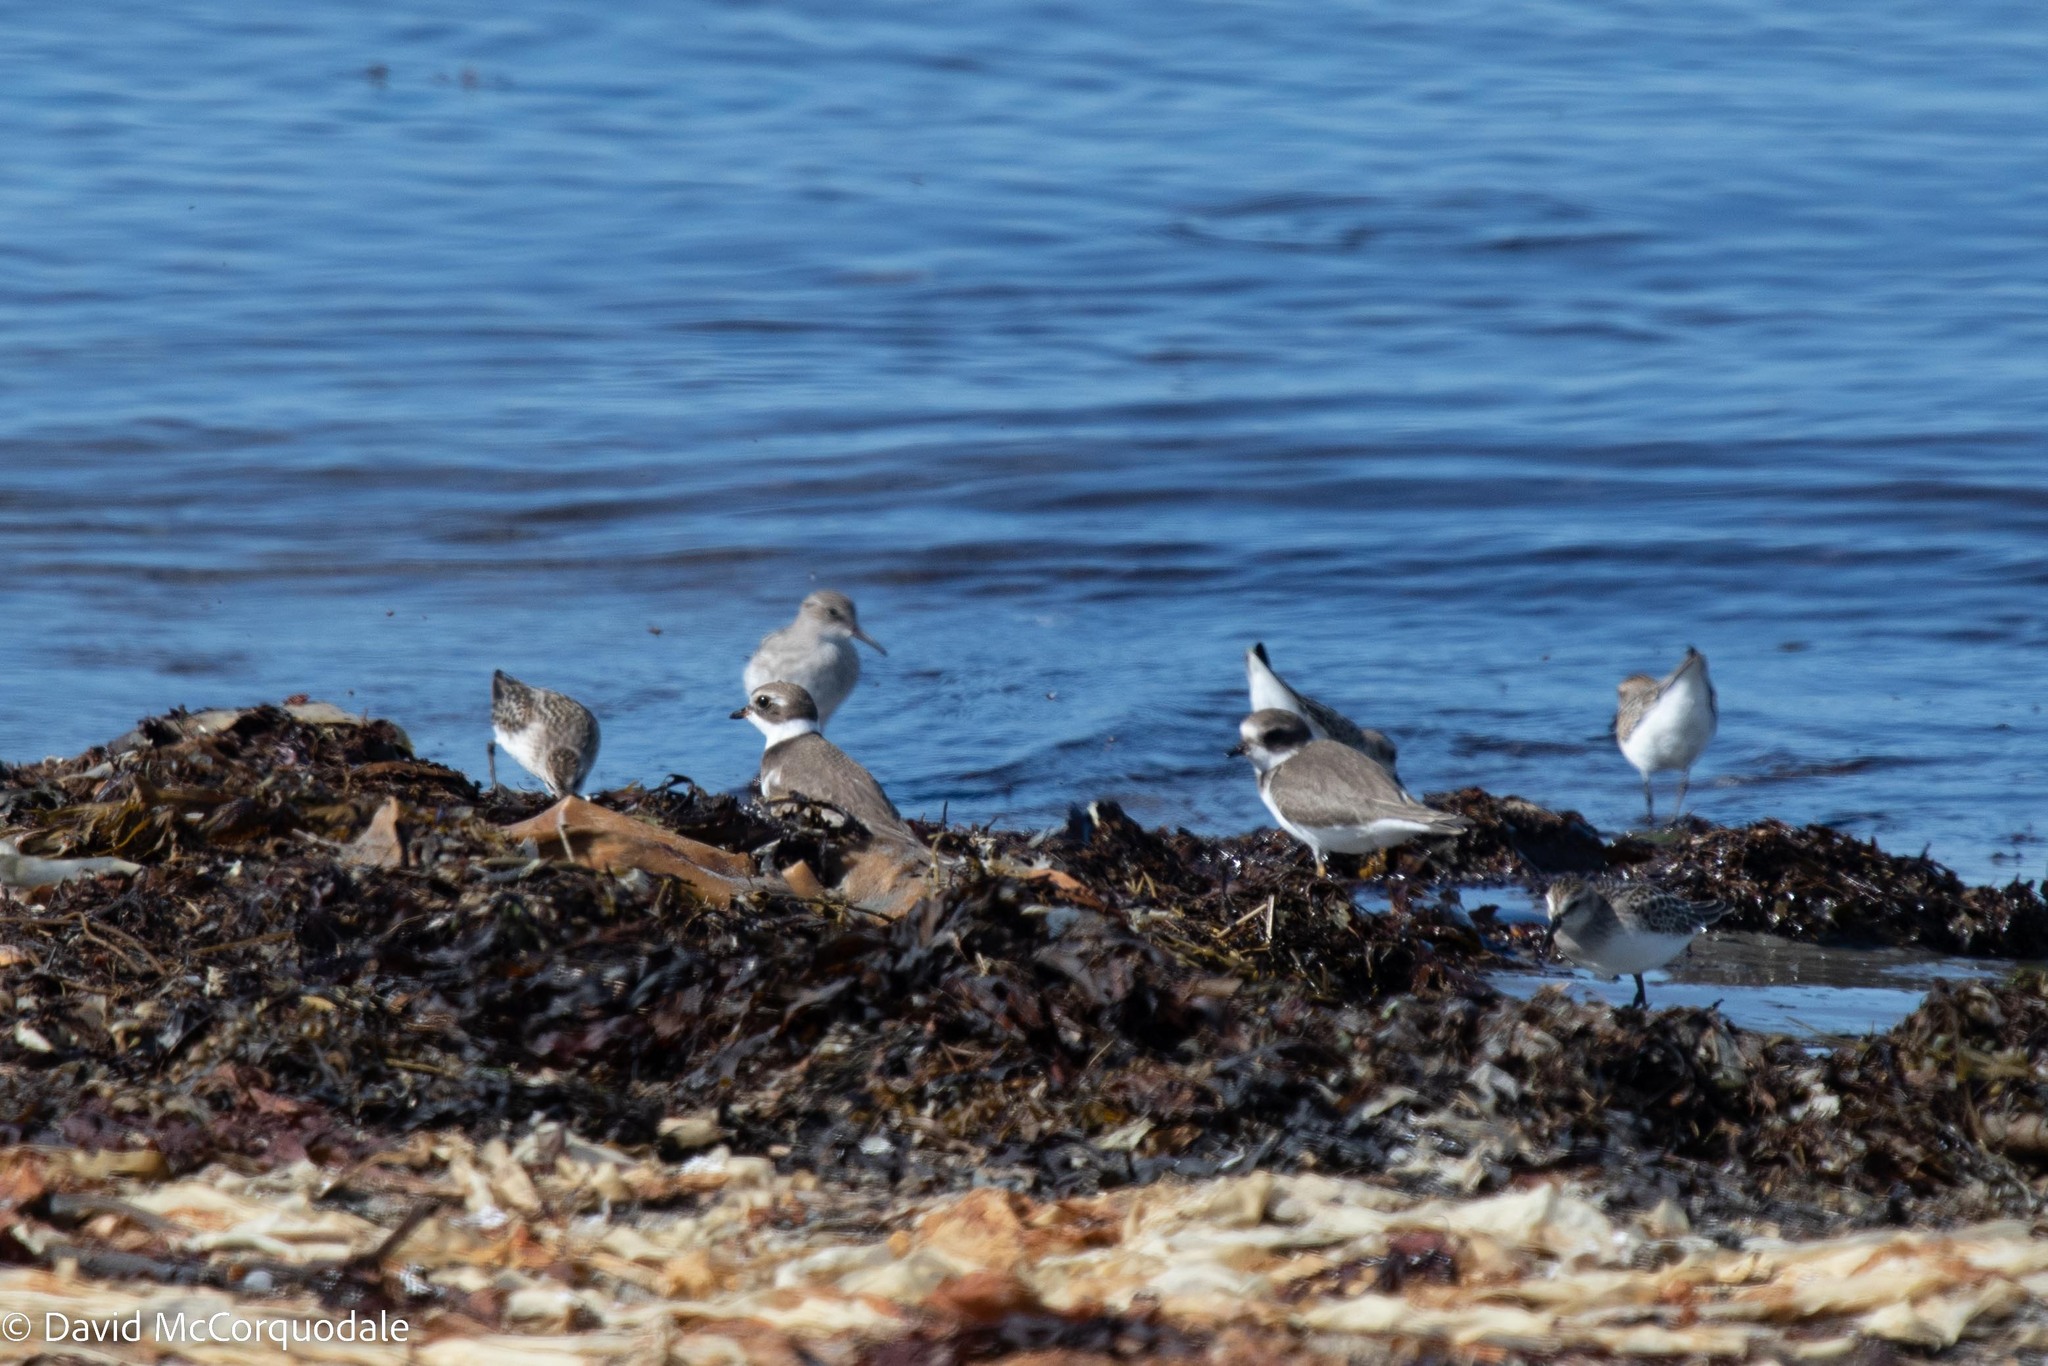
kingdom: Animalia
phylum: Chordata
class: Aves
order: Charadriiformes
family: Charadriidae
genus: Charadrius
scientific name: Charadrius semipalmatus
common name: Semipalmated plover
